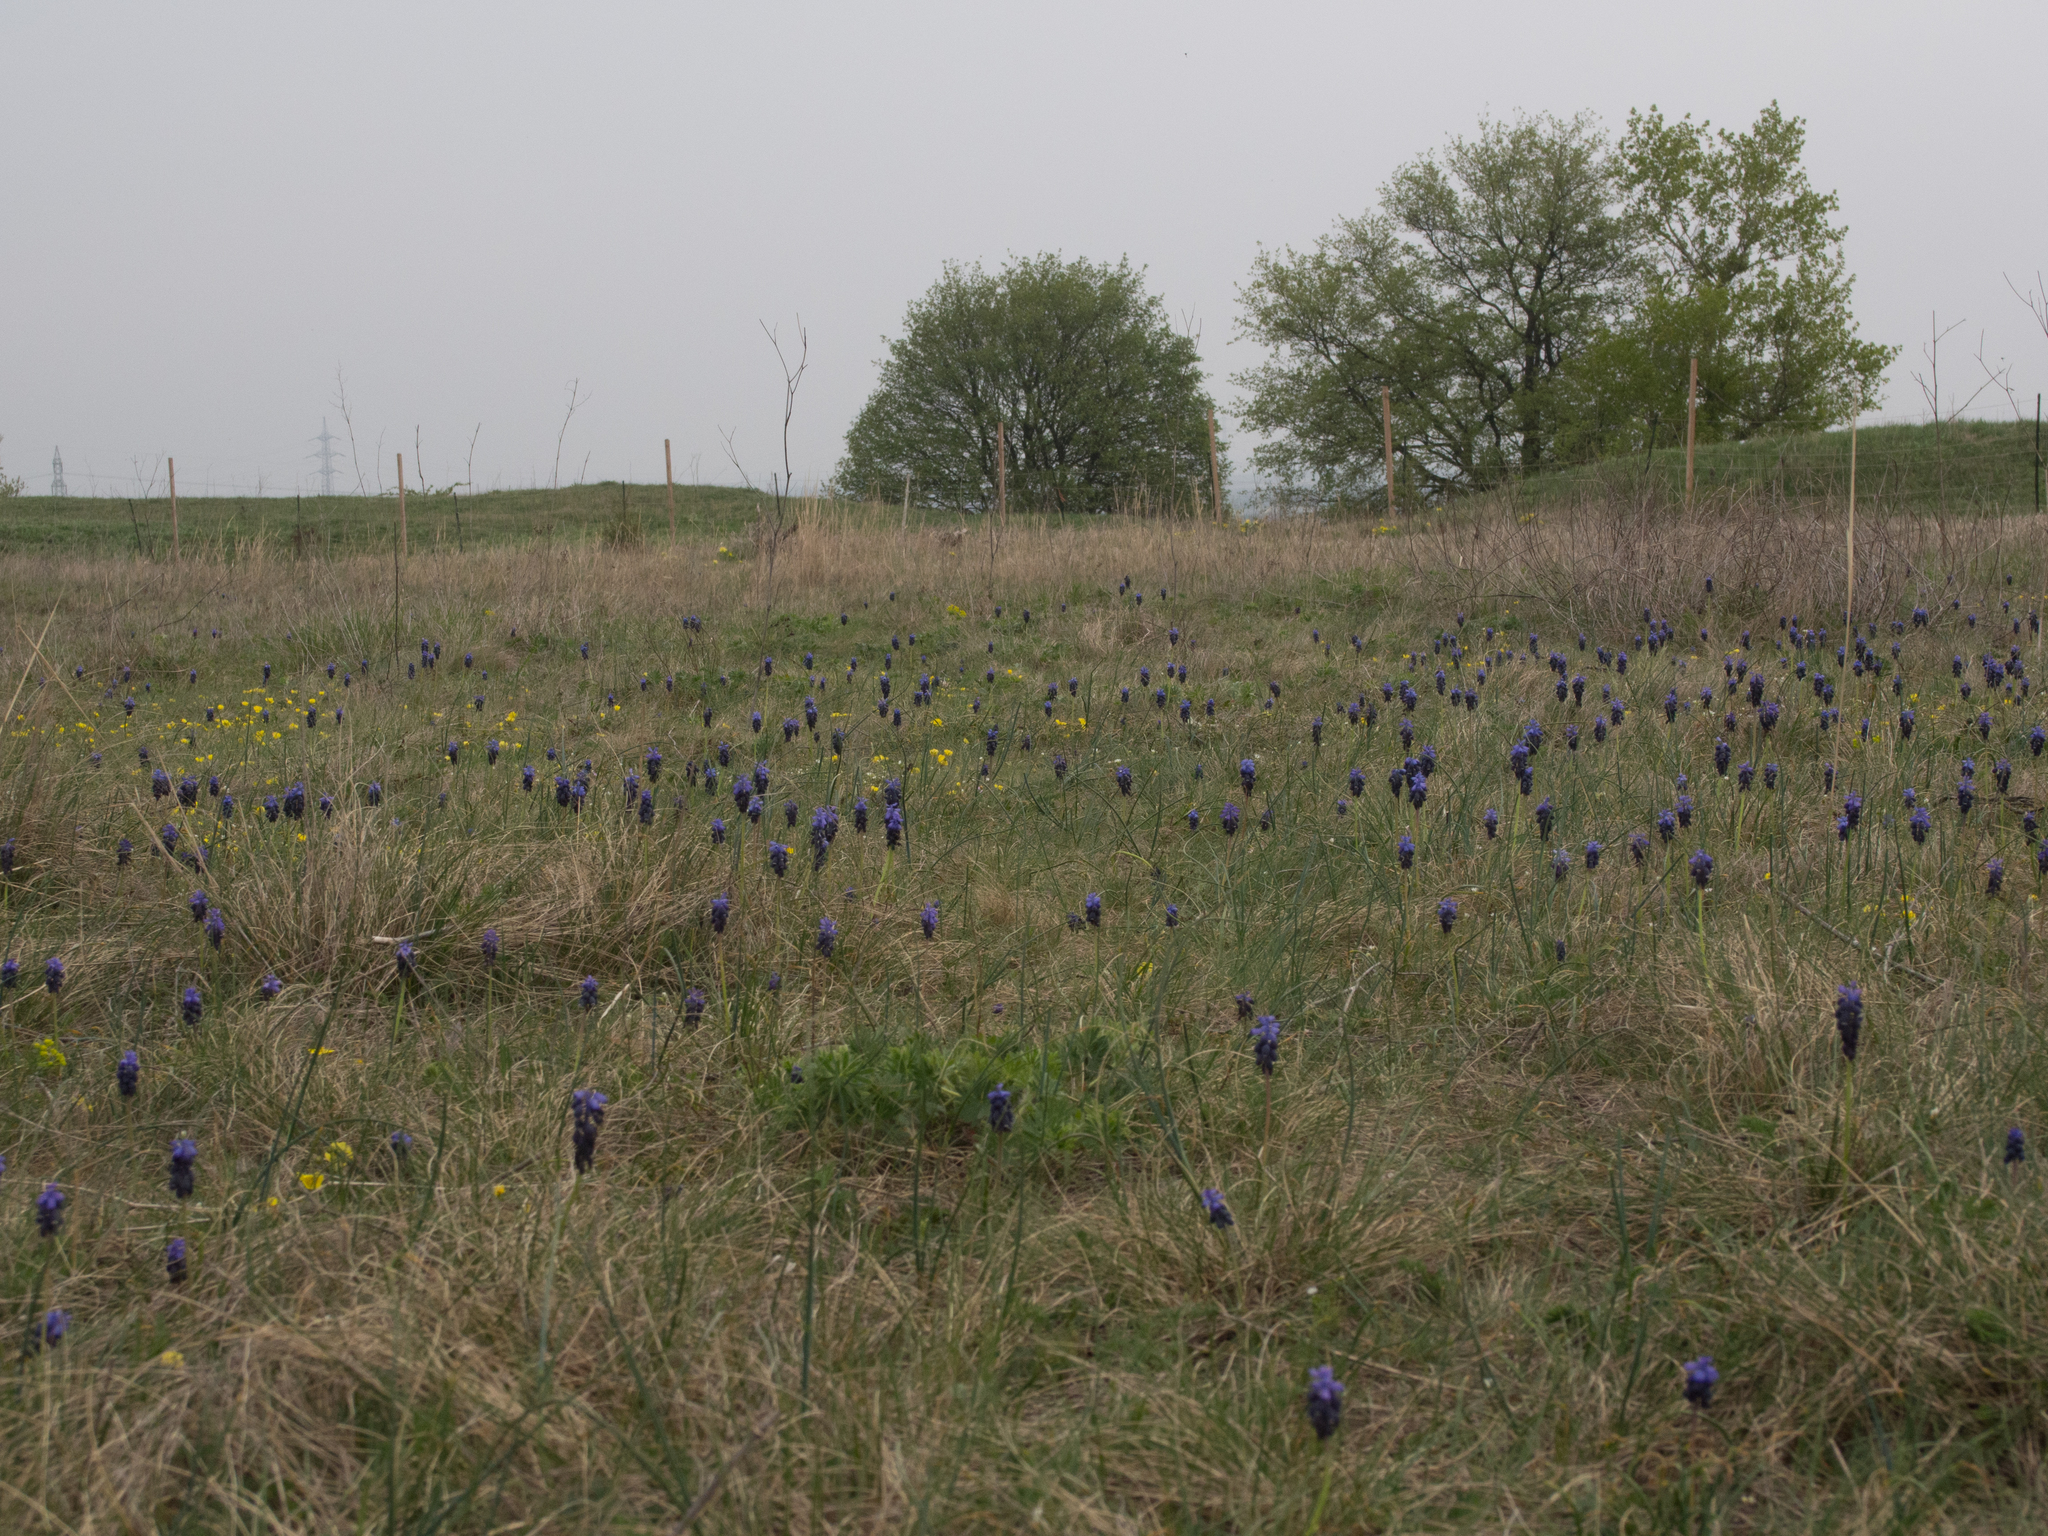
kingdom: Plantae
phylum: Tracheophyta
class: Liliopsida
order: Asparagales
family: Asparagaceae
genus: Muscari
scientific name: Muscari neglectum
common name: Grape-hyacinth
